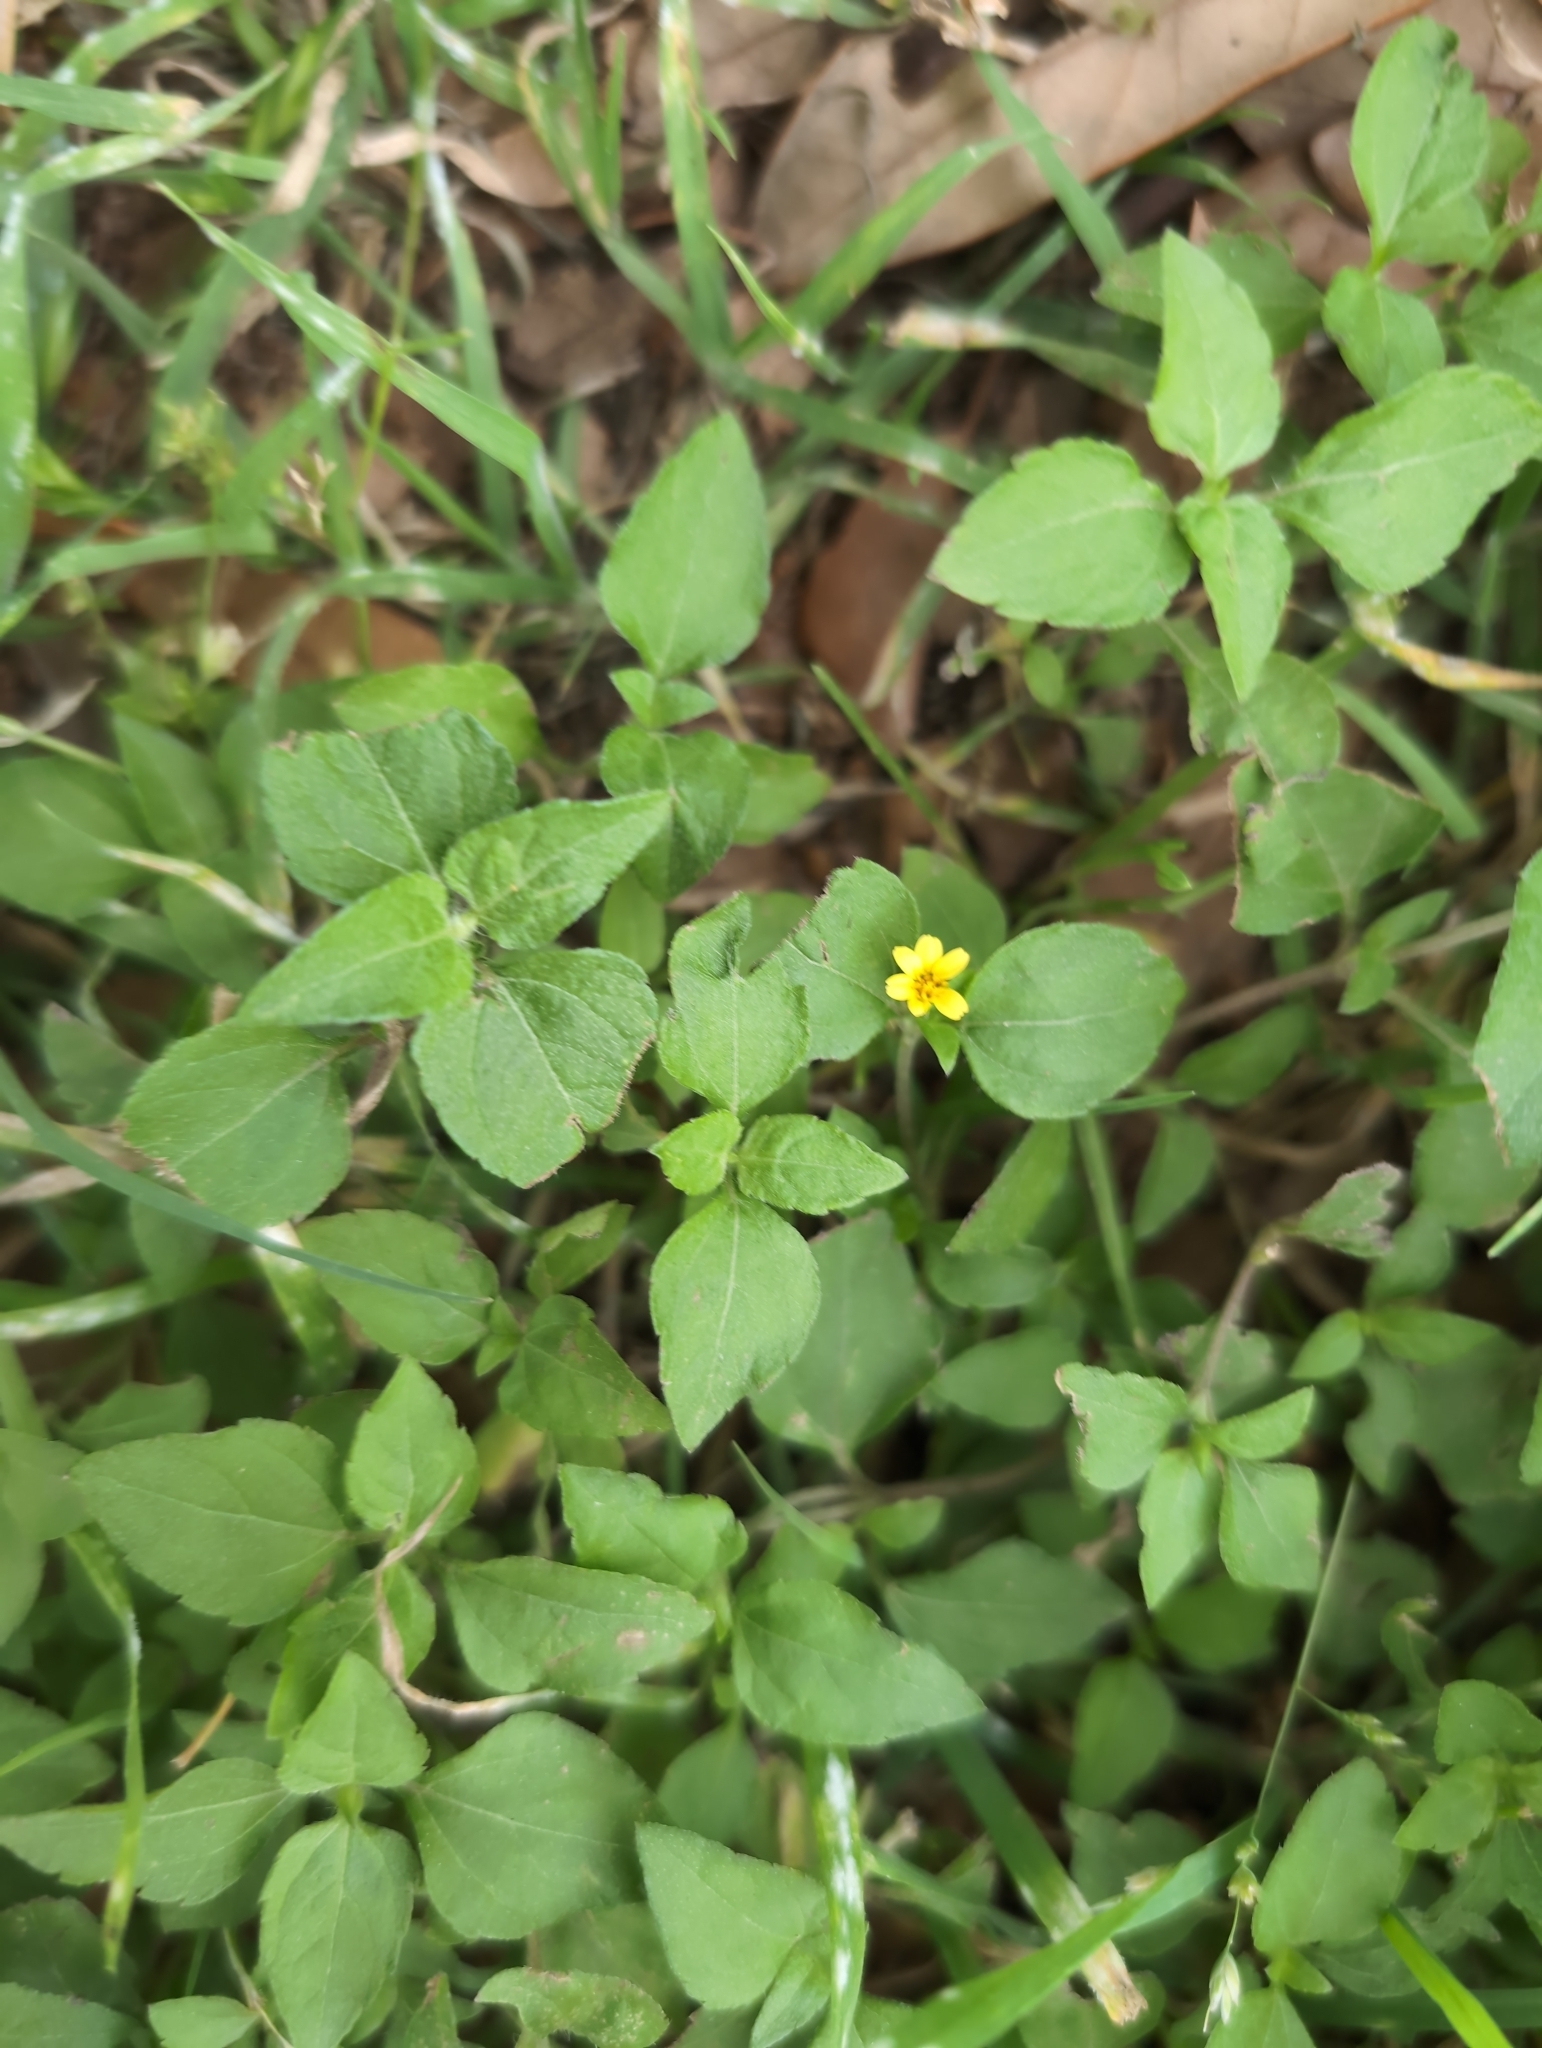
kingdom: Plantae
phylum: Tracheophyta
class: Magnoliopsida
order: Asterales
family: Asteraceae
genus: Calyptocarpus
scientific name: Calyptocarpus vialis
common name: Straggler daisy
